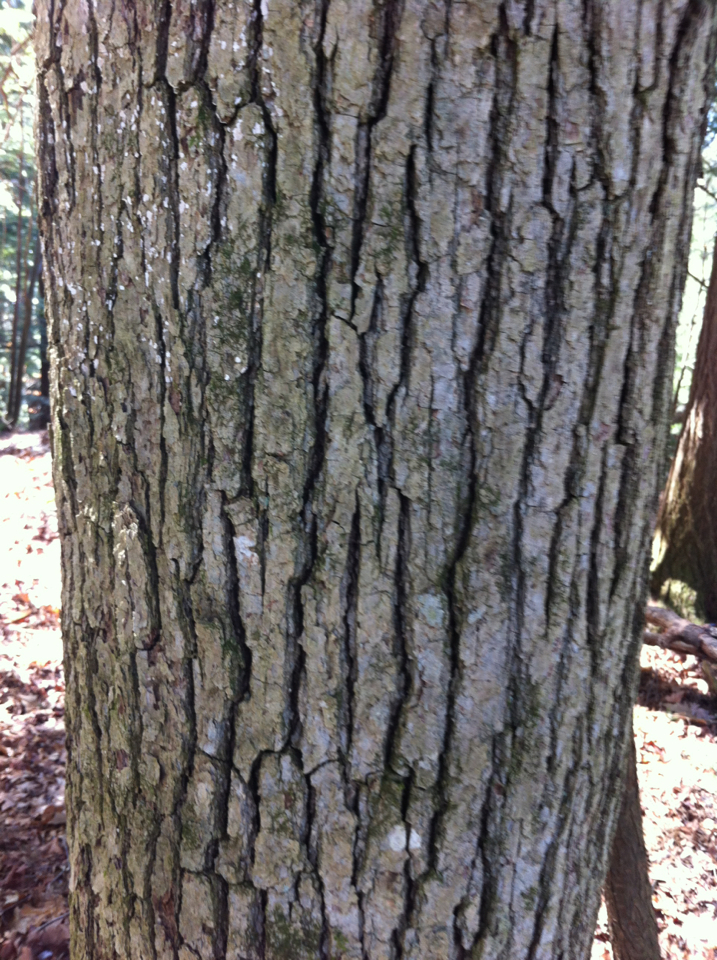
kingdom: Plantae
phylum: Tracheophyta
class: Magnoliopsida
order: Fagales
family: Fagaceae
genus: Quercus
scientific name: Quercus alba
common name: White oak
